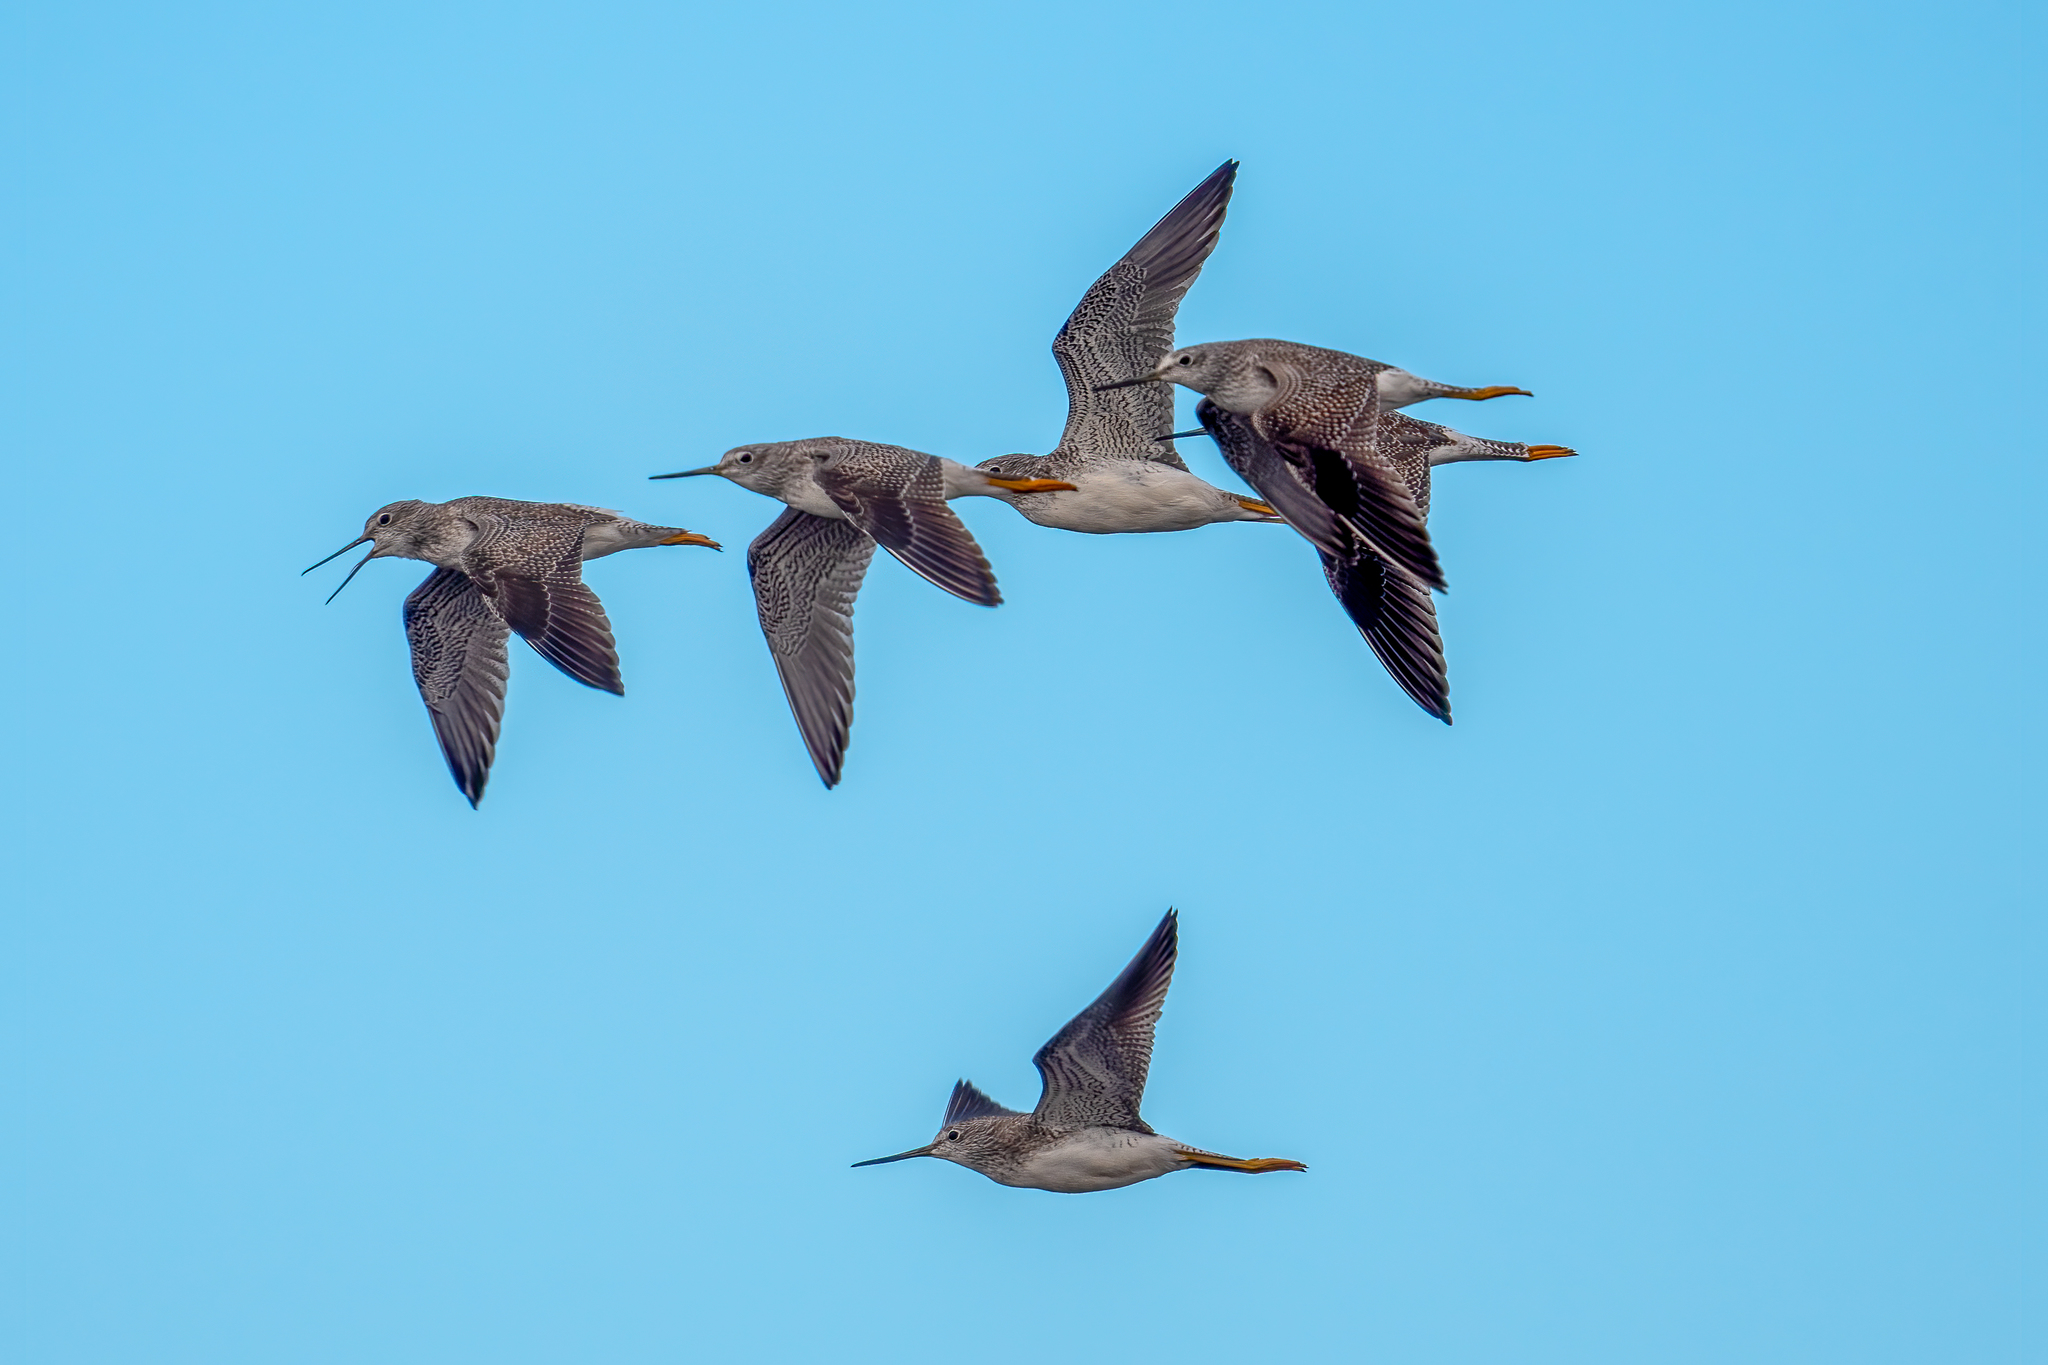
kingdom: Animalia
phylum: Chordata
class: Aves
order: Charadriiformes
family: Scolopacidae
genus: Tringa
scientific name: Tringa melanoleuca
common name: Greater yellowlegs
